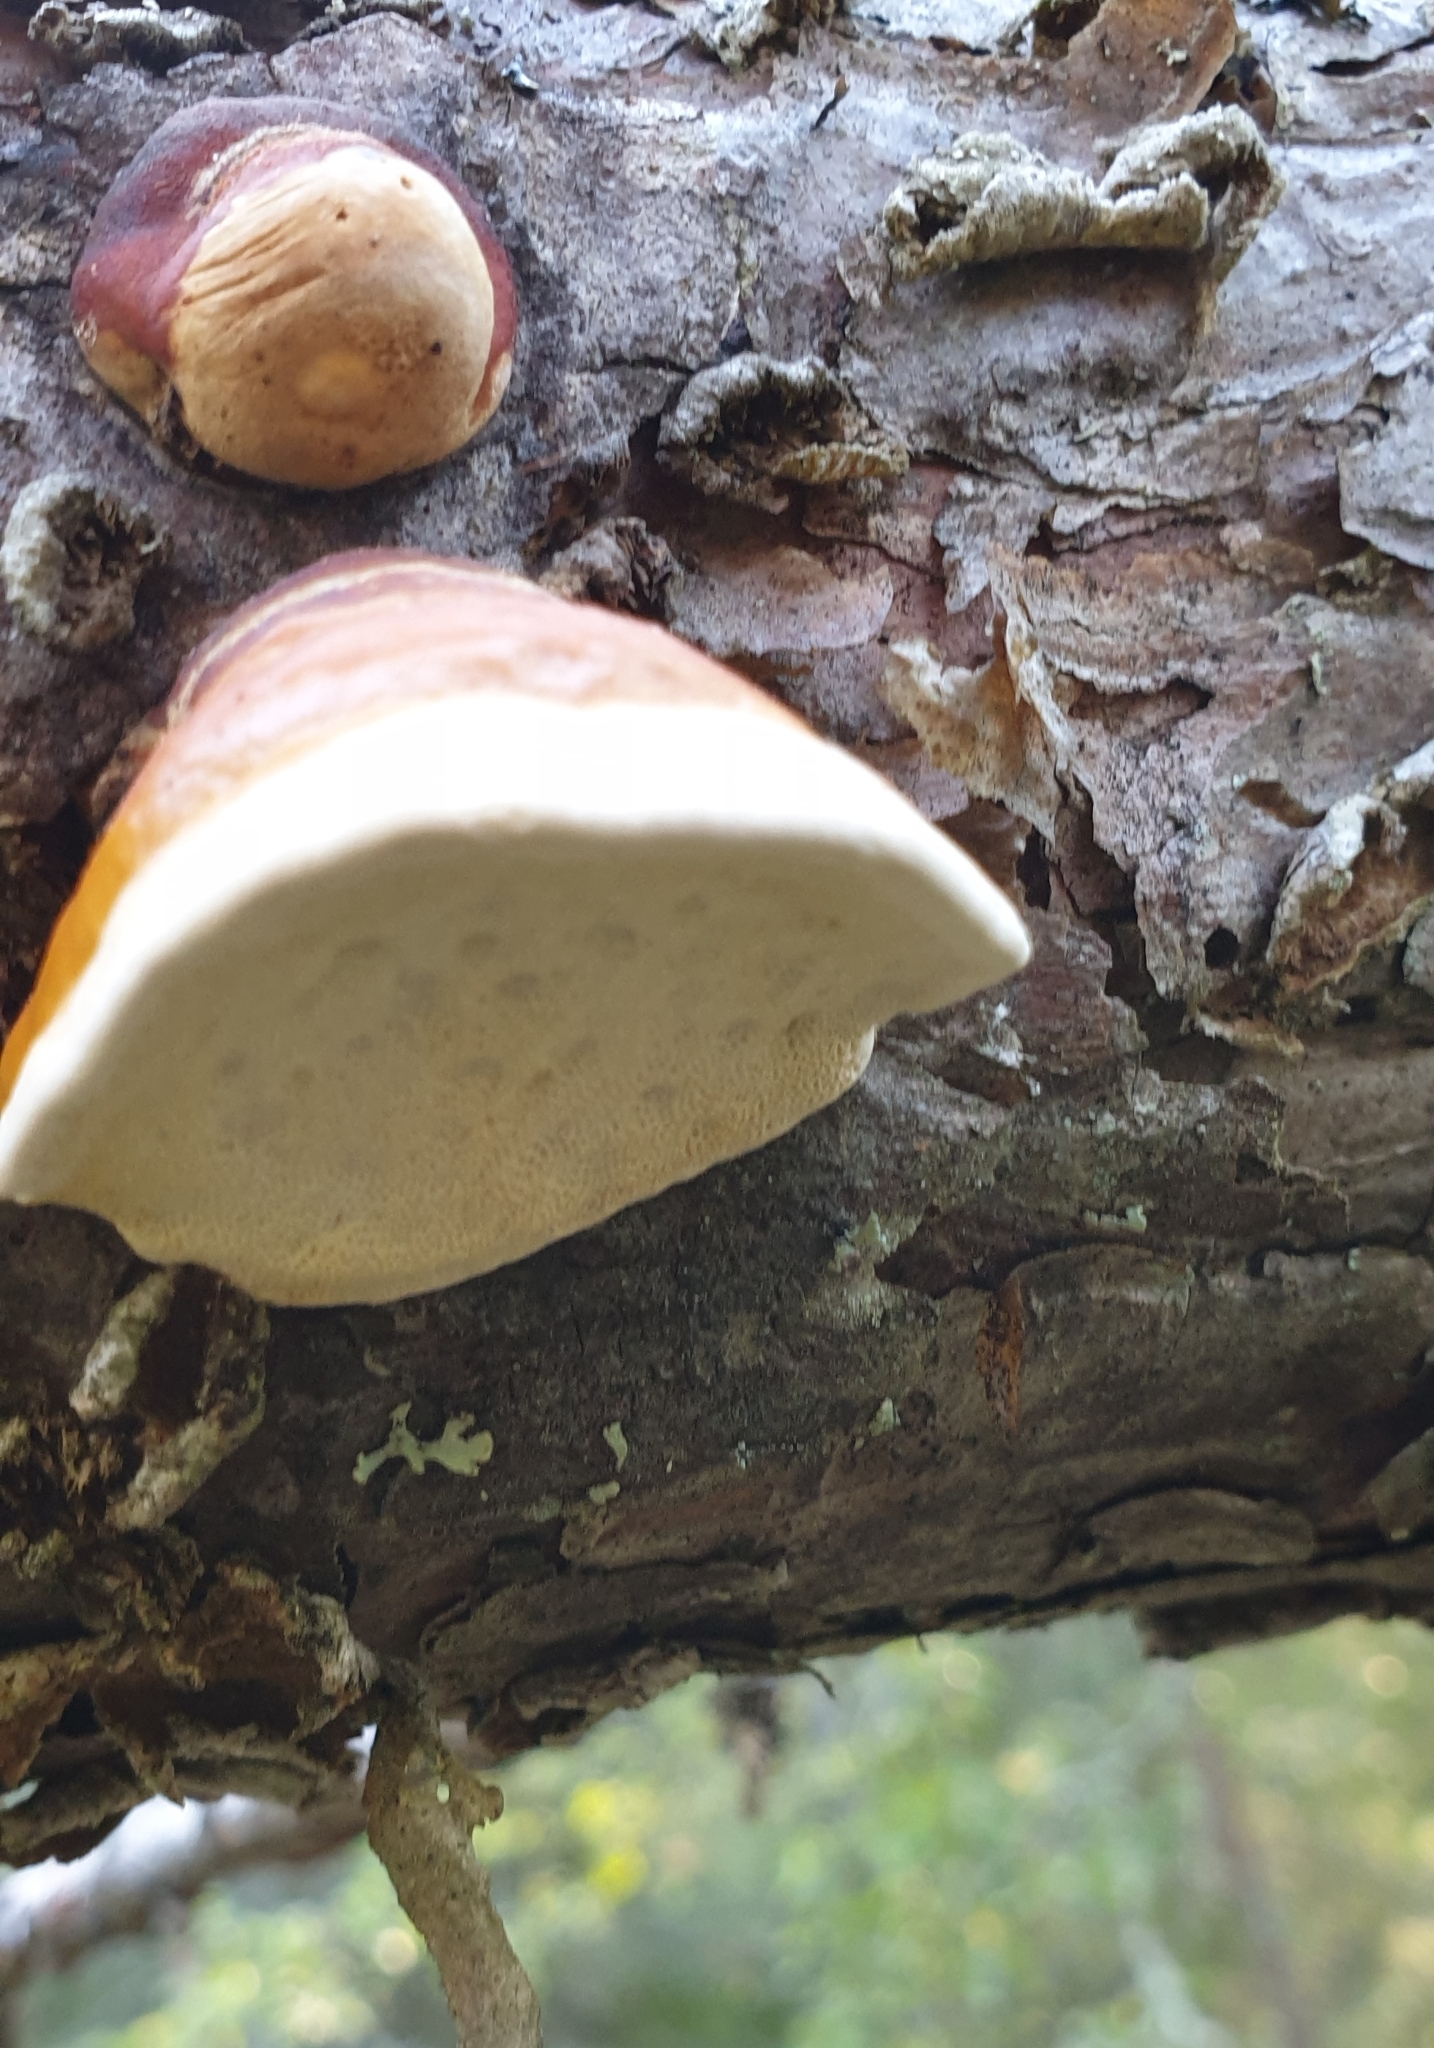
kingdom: Fungi
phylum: Basidiomycota
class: Agaricomycetes
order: Polyporales
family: Fomitopsidaceae
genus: Fomitopsis
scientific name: Fomitopsis pinicola
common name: Red-belted bracket
